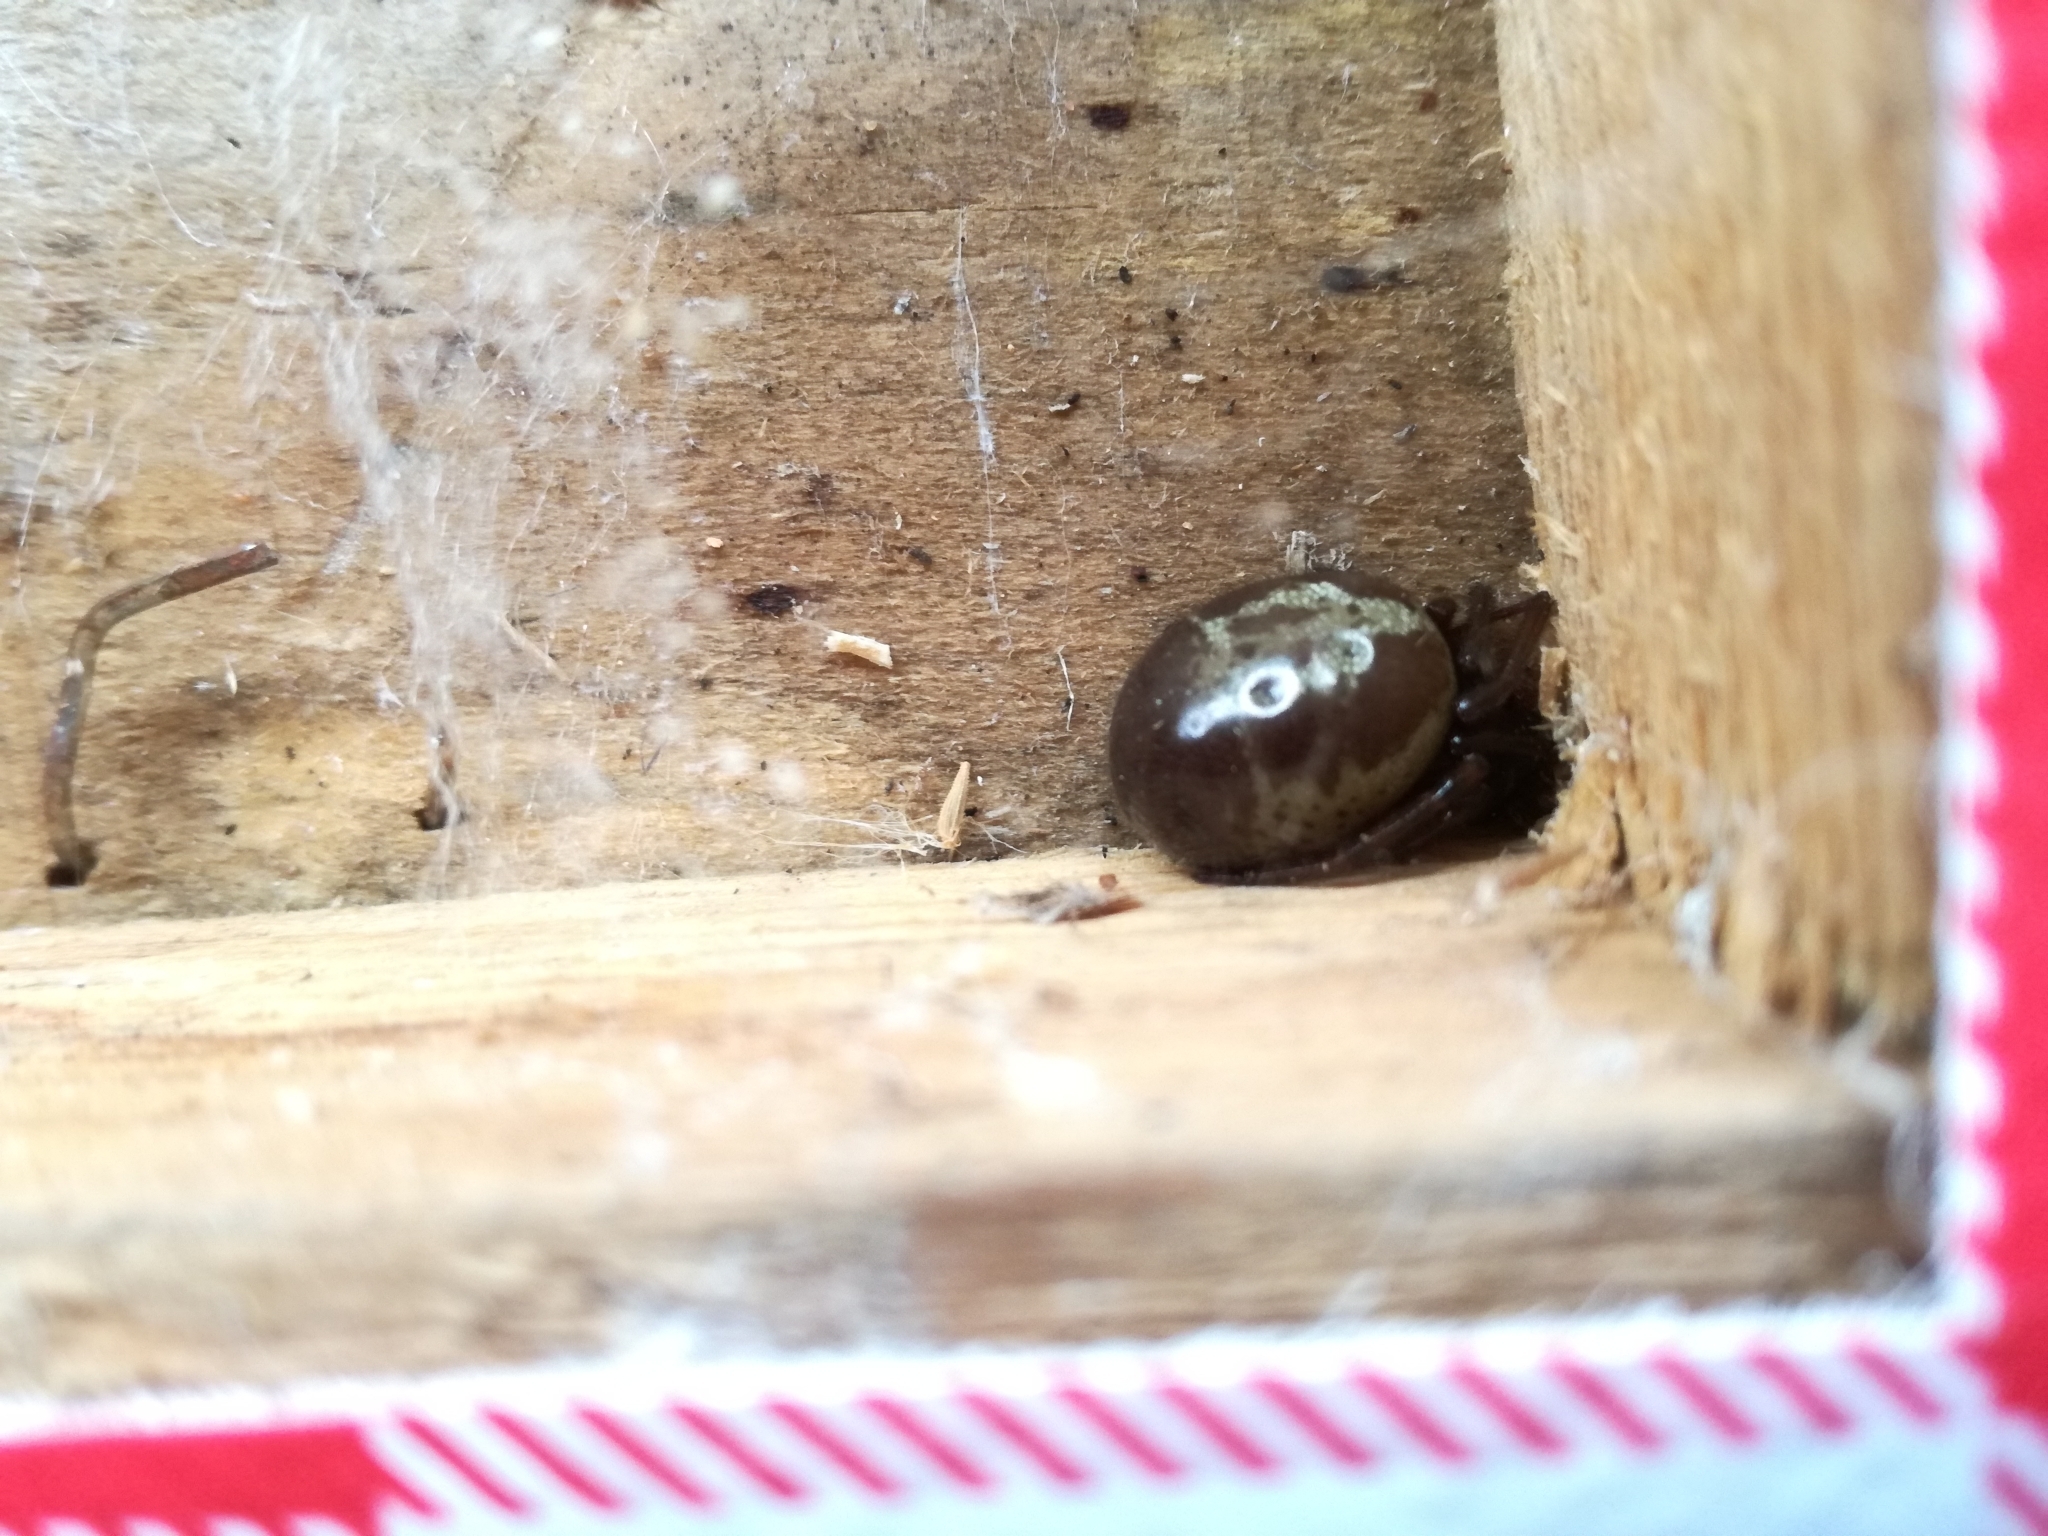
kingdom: Animalia
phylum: Arthropoda
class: Arachnida
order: Araneae
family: Theridiidae
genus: Steatoda
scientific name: Steatoda nobilis
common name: Cobweb weaver
